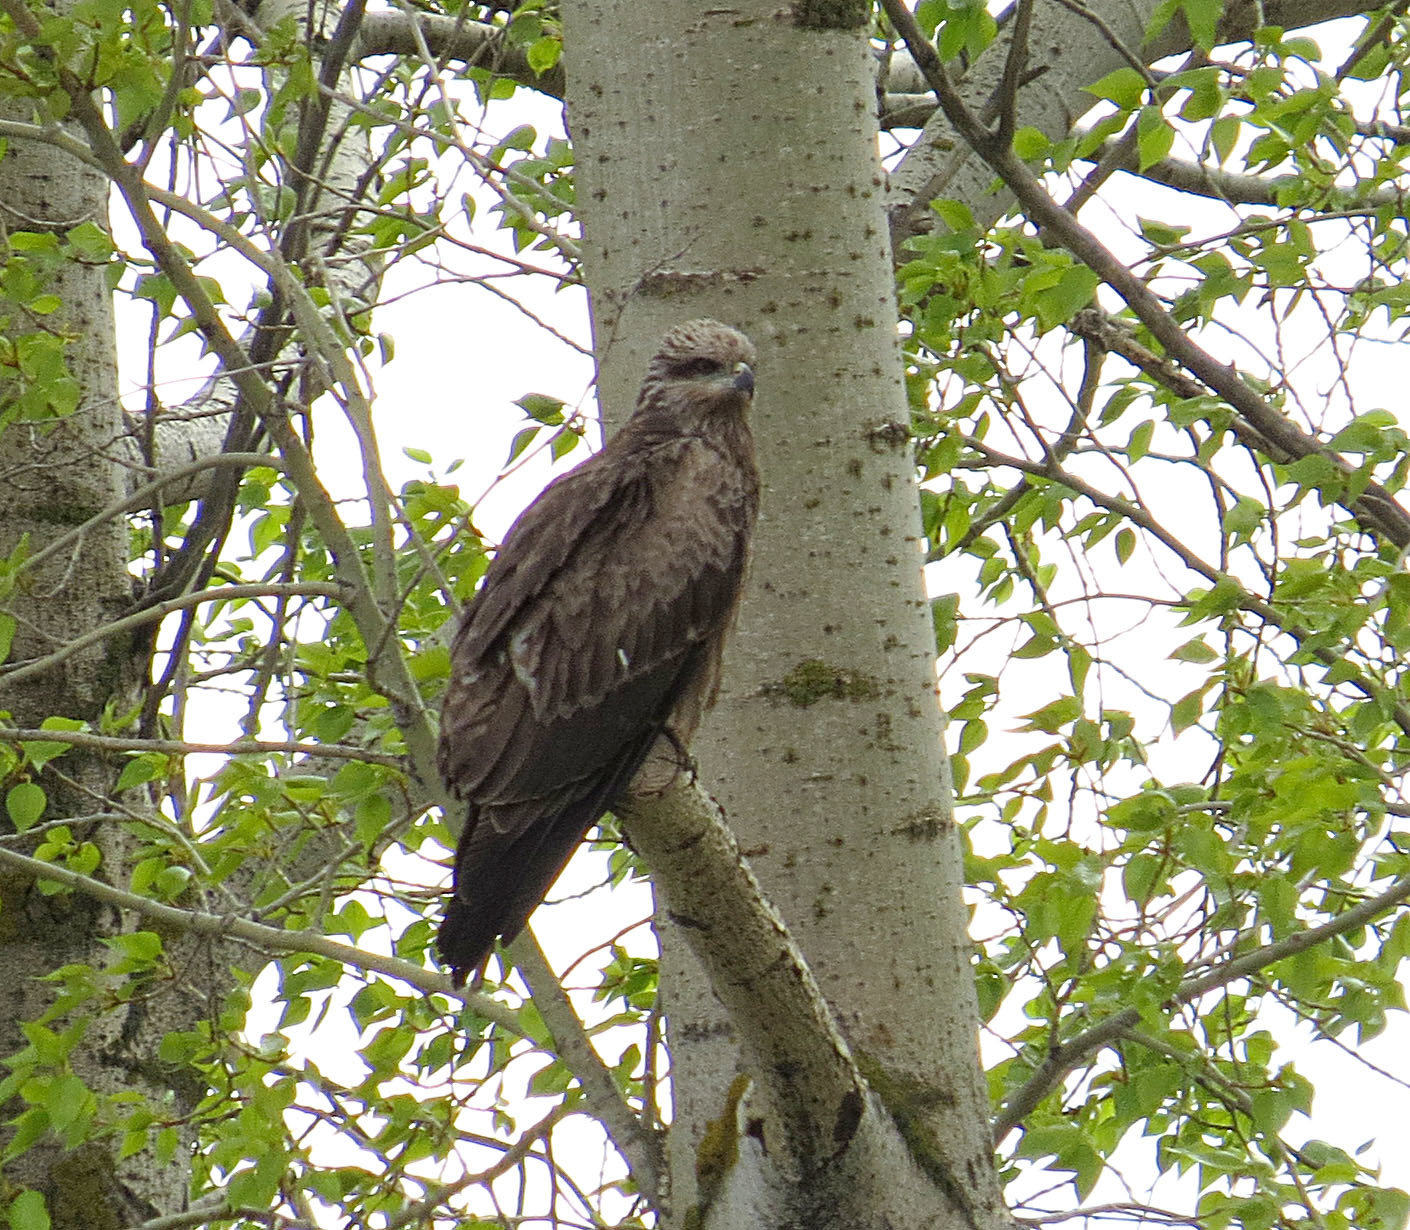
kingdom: Animalia
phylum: Chordata
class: Aves
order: Accipitriformes
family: Accipitridae
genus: Milvus
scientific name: Milvus migrans
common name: Black kite
